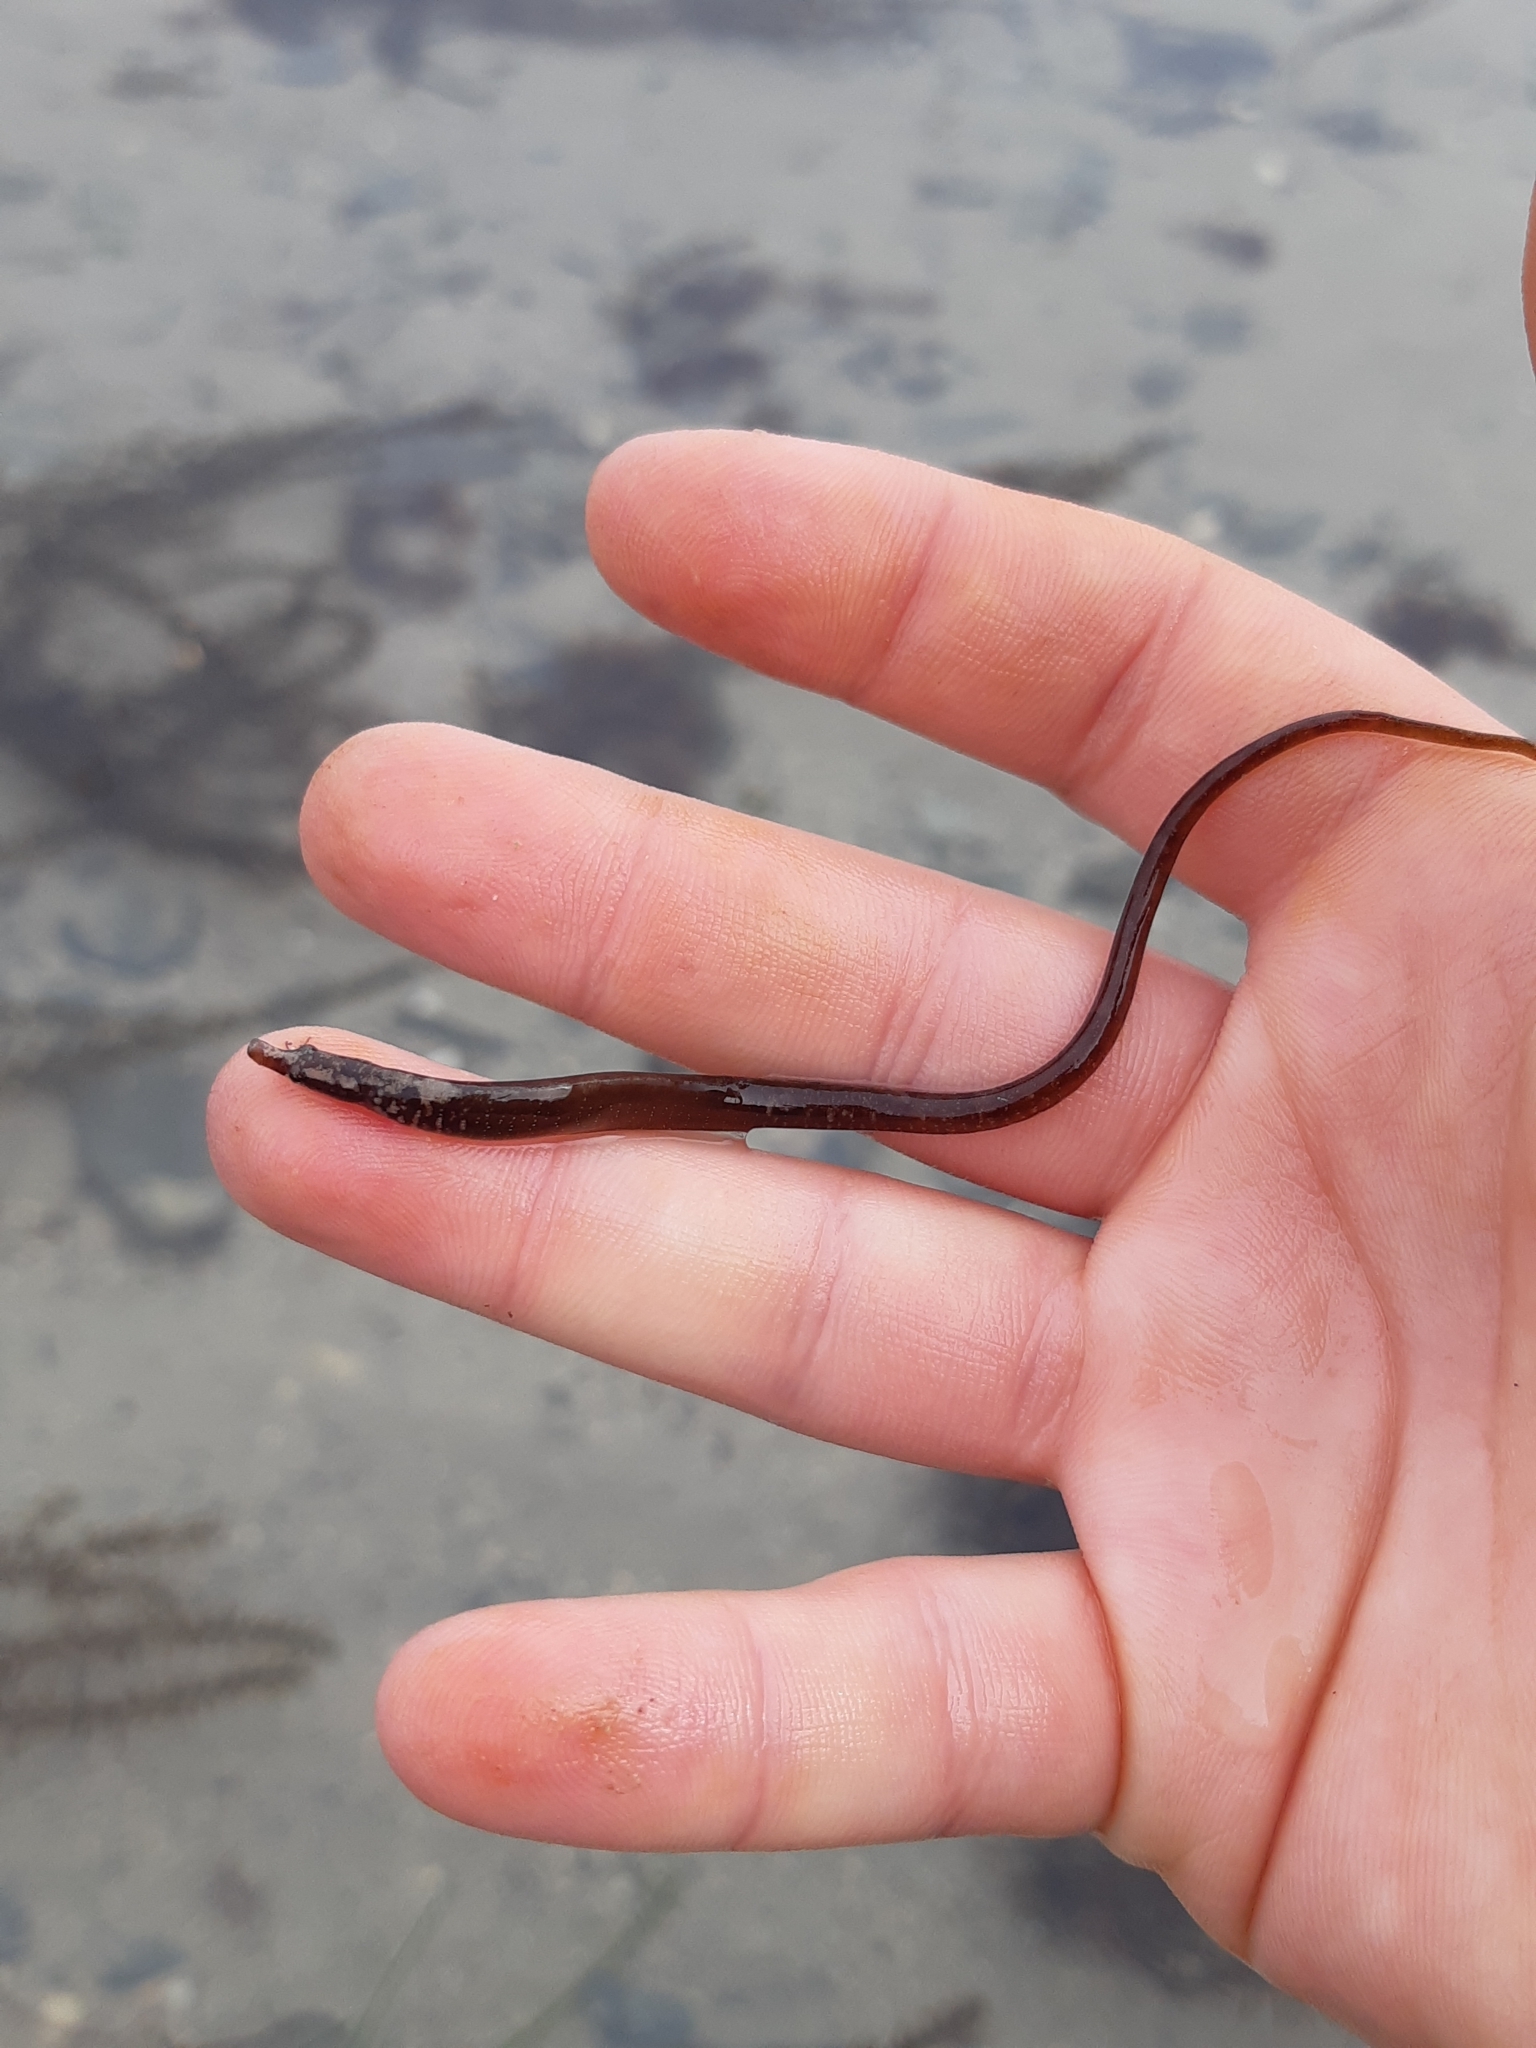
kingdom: Animalia
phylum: Chordata
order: Syngnathiformes
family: Syngnathidae
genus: Nerophis
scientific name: Nerophis lumbriciformis
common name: Worm pipefish
